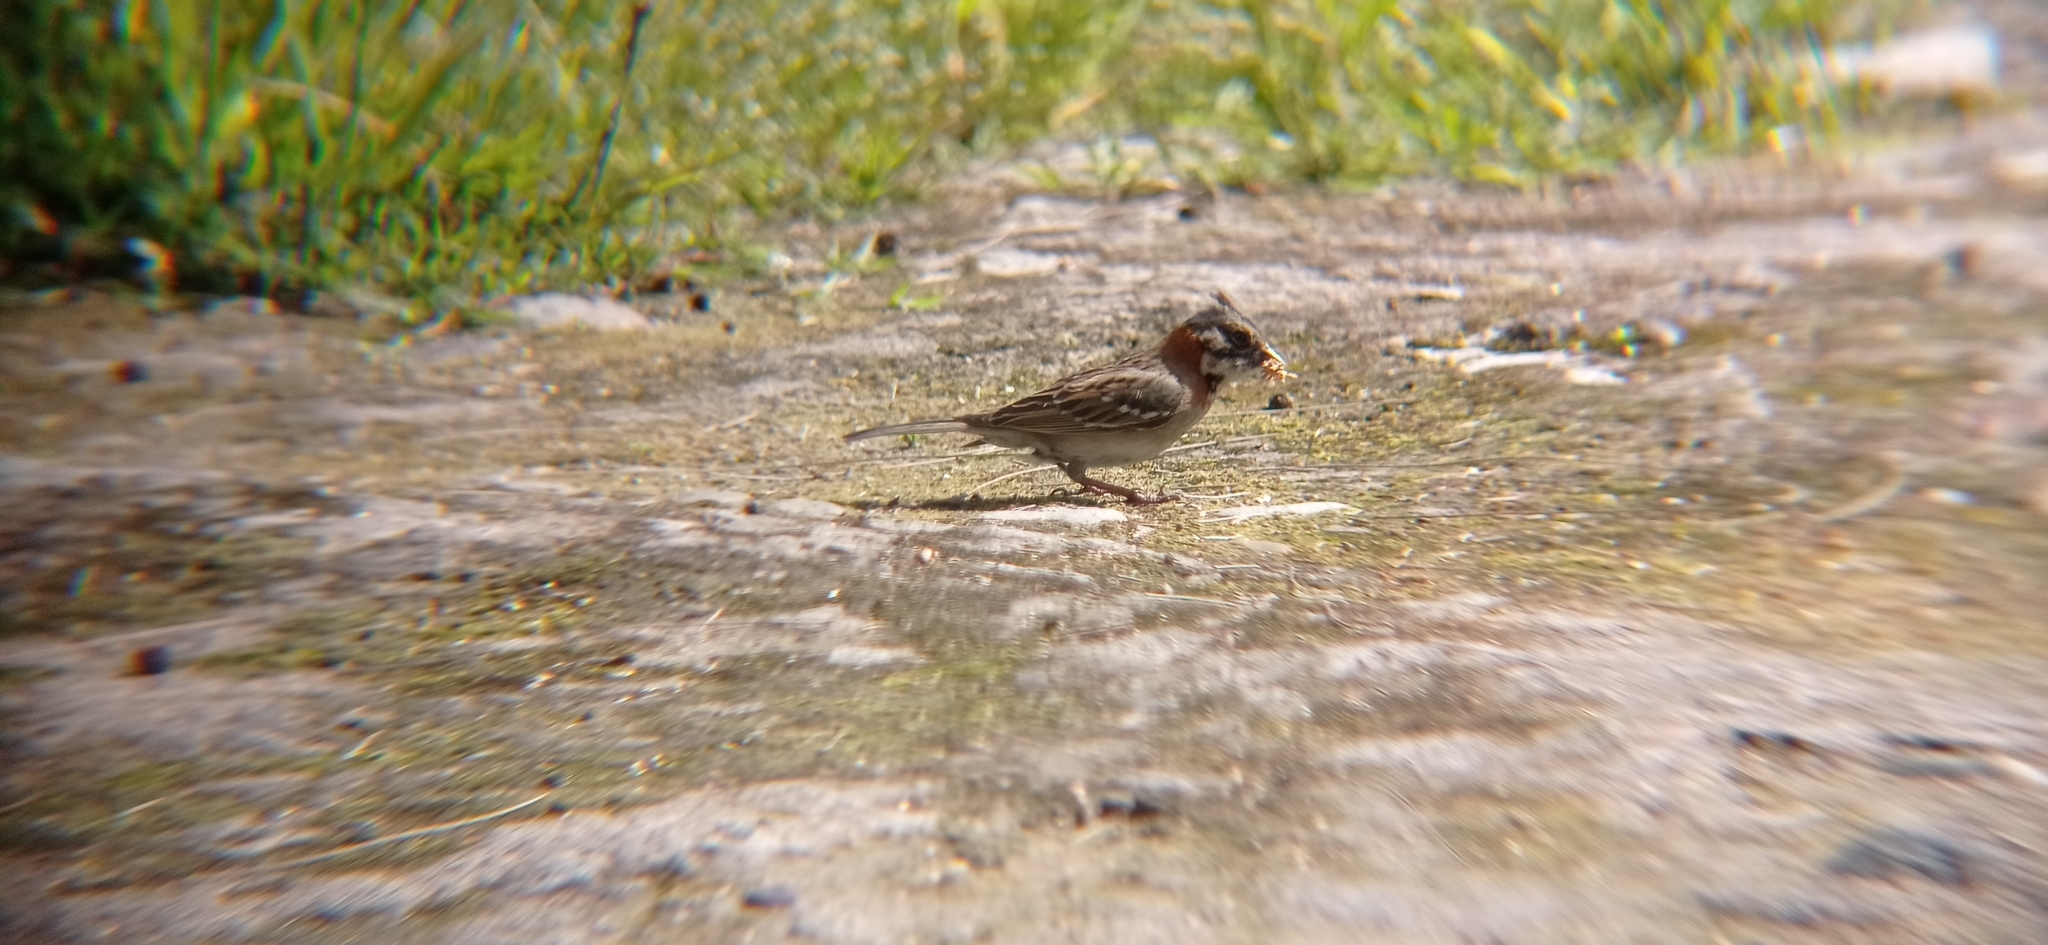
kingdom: Animalia
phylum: Chordata
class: Aves
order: Passeriformes
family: Passerellidae
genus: Zonotrichia
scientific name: Zonotrichia capensis
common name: Rufous-collared sparrow
